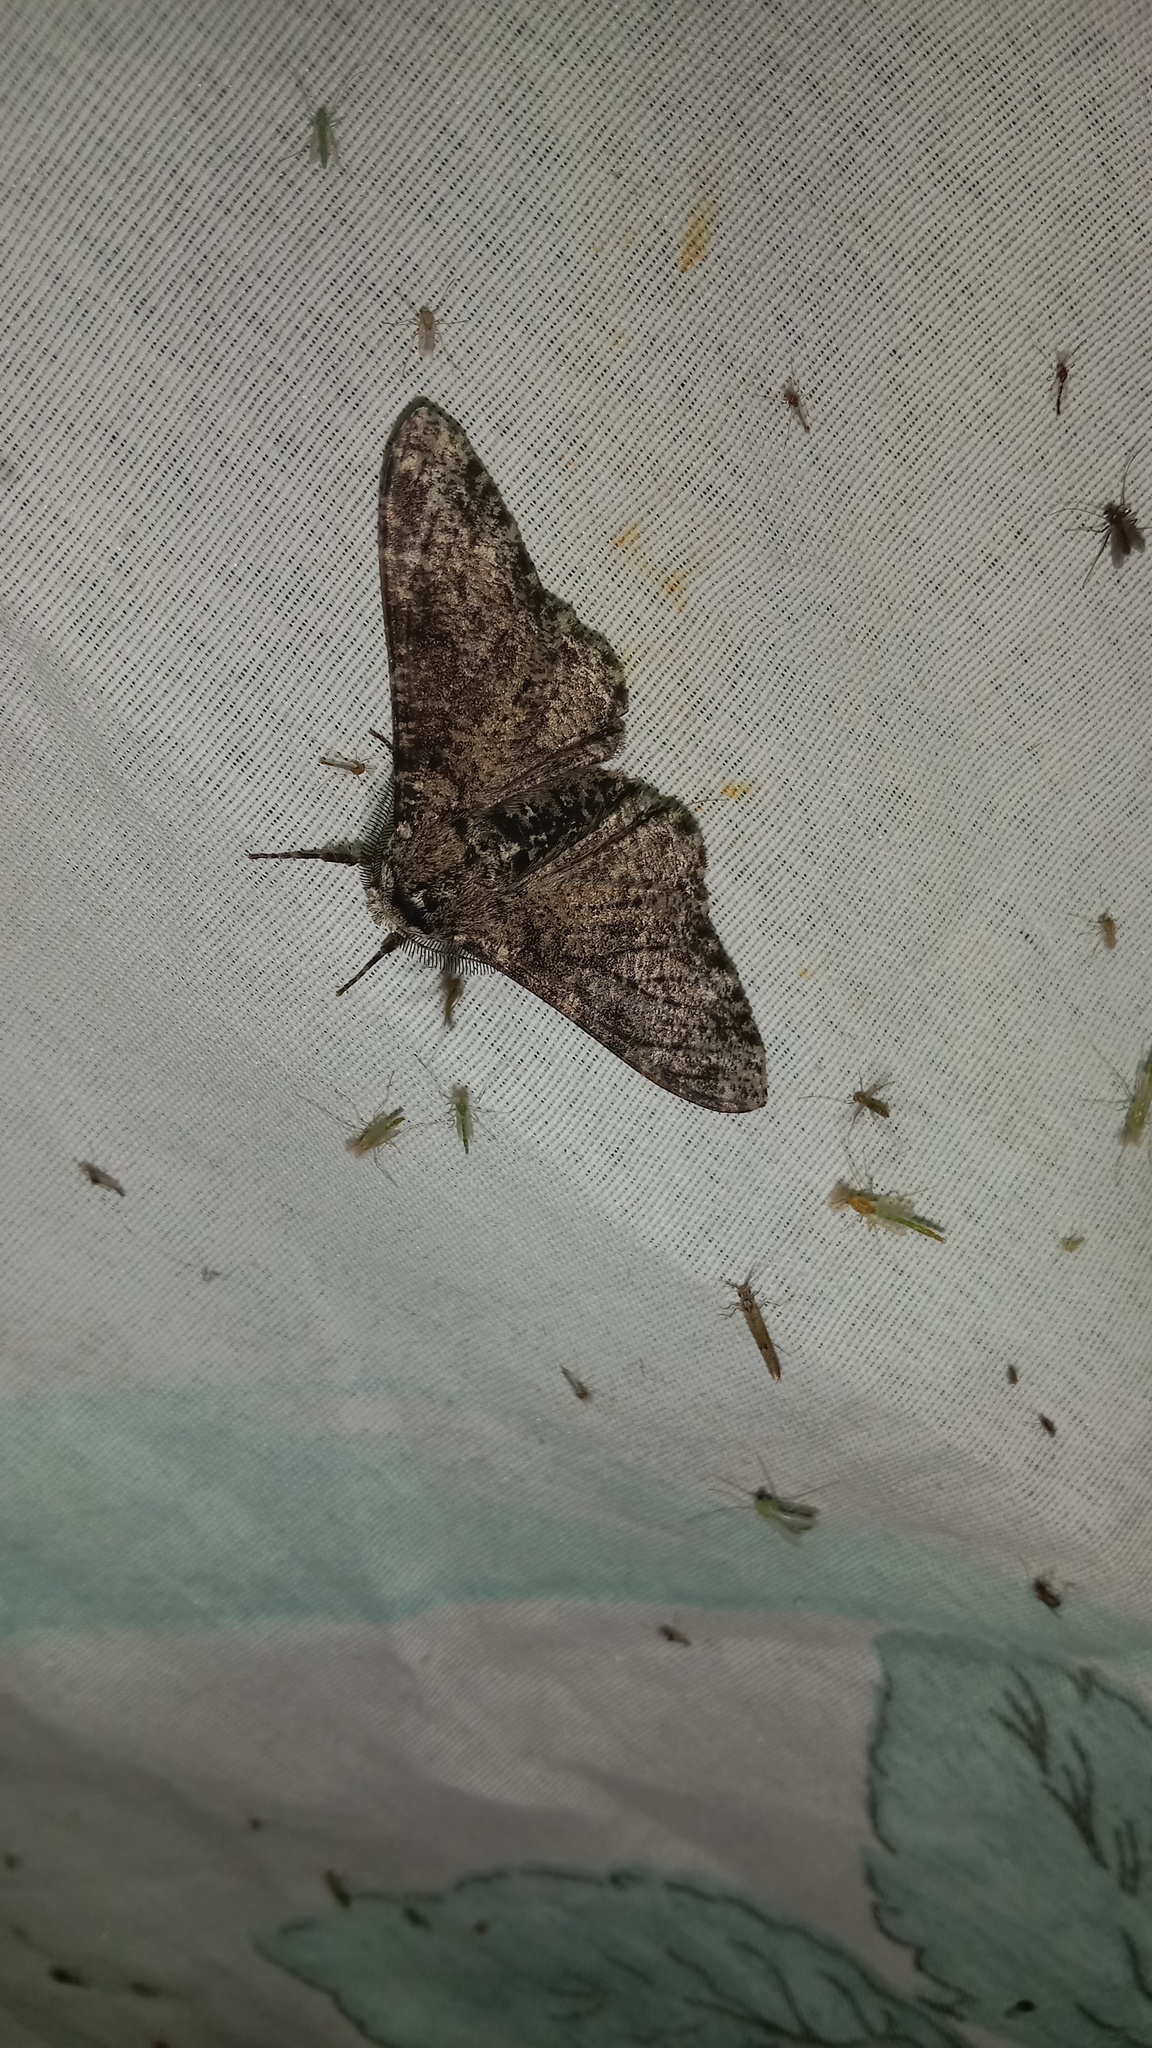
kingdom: Animalia
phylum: Arthropoda
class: Insecta
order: Lepidoptera
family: Geometridae
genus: Biston
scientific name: Biston betularia
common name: Peppered moth
